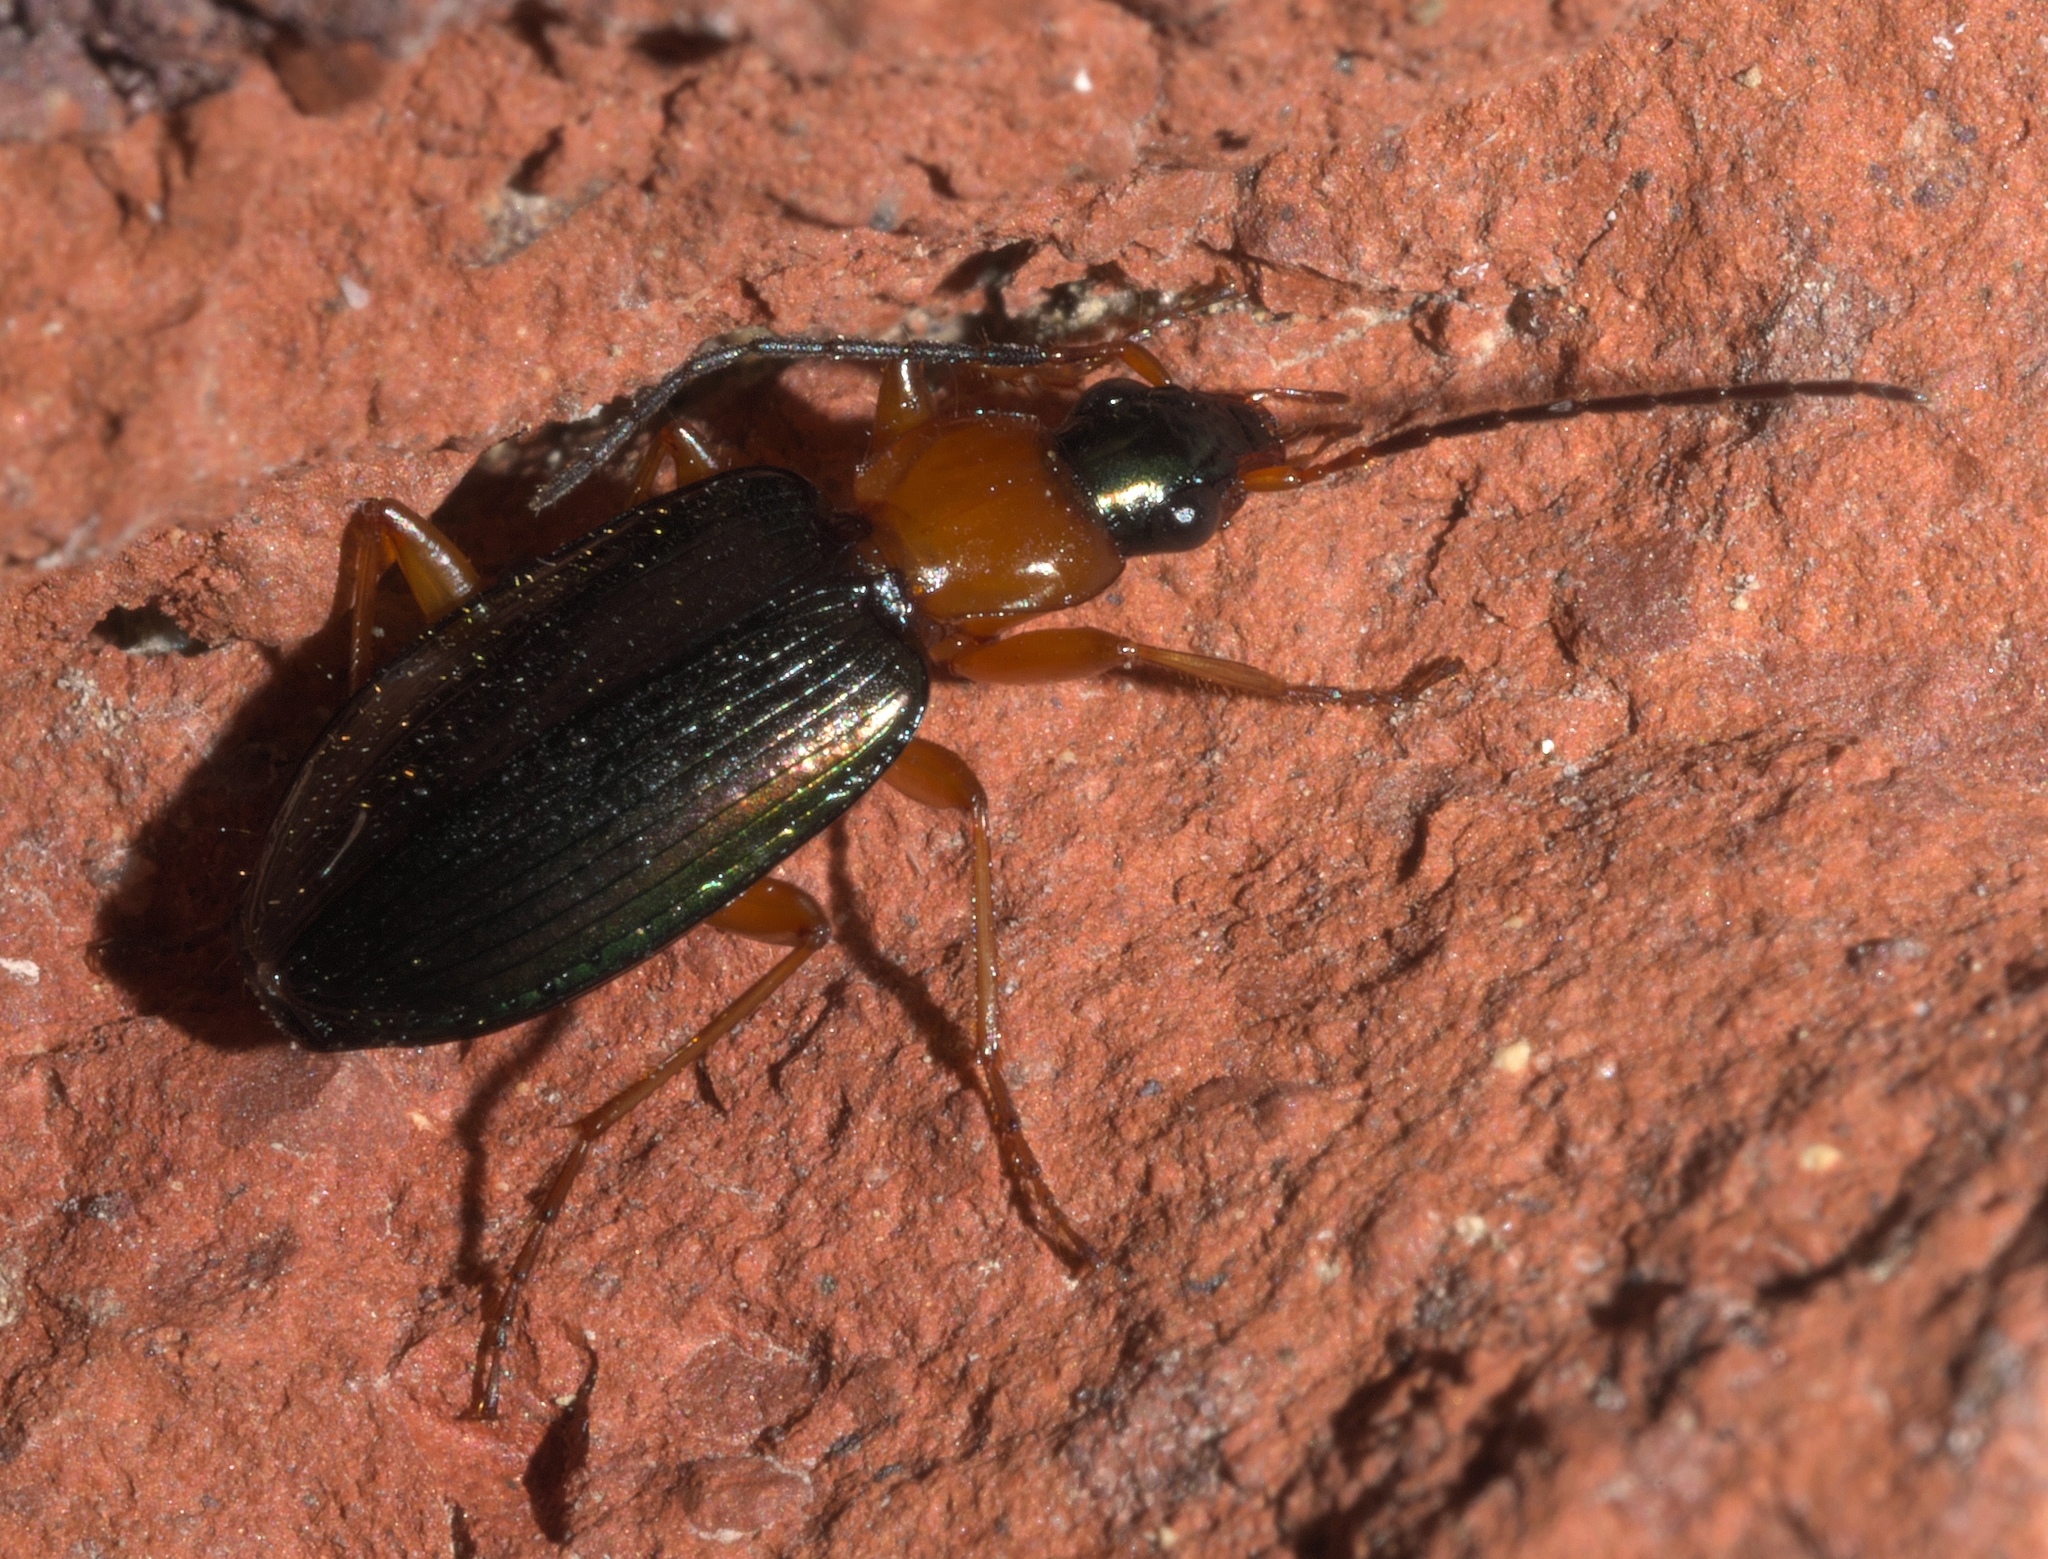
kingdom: Animalia
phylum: Arthropoda
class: Insecta
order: Coleoptera
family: Carabidae
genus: Agonum
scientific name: Agonum decorum
